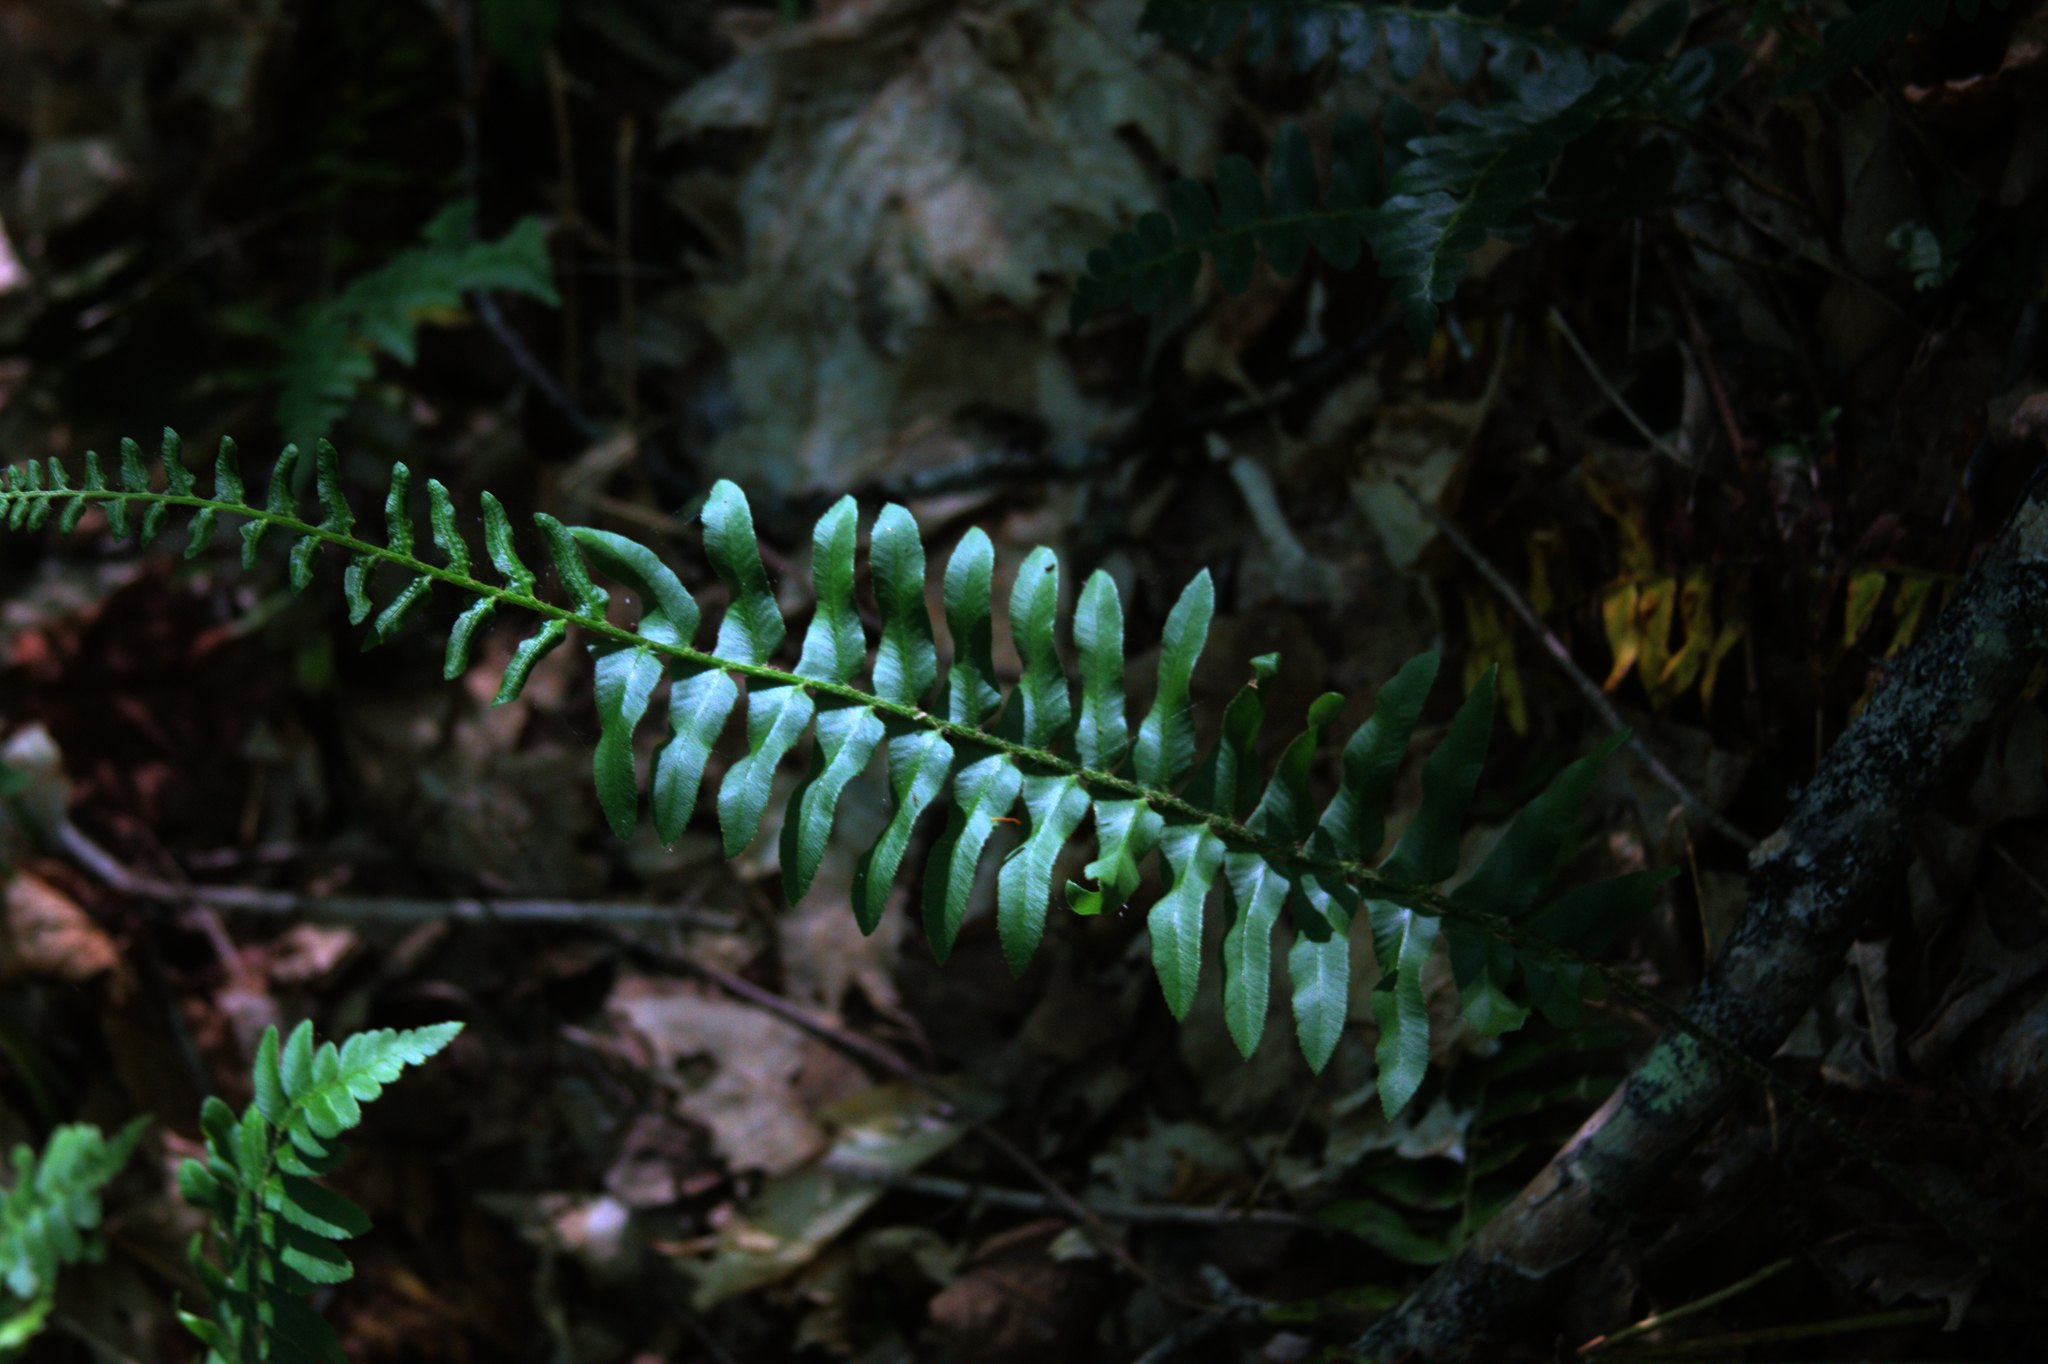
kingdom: Plantae
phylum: Tracheophyta
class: Polypodiopsida
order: Polypodiales
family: Dryopteridaceae
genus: Polystichum
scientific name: Polystichum acrostichoides
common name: Christmas fern
